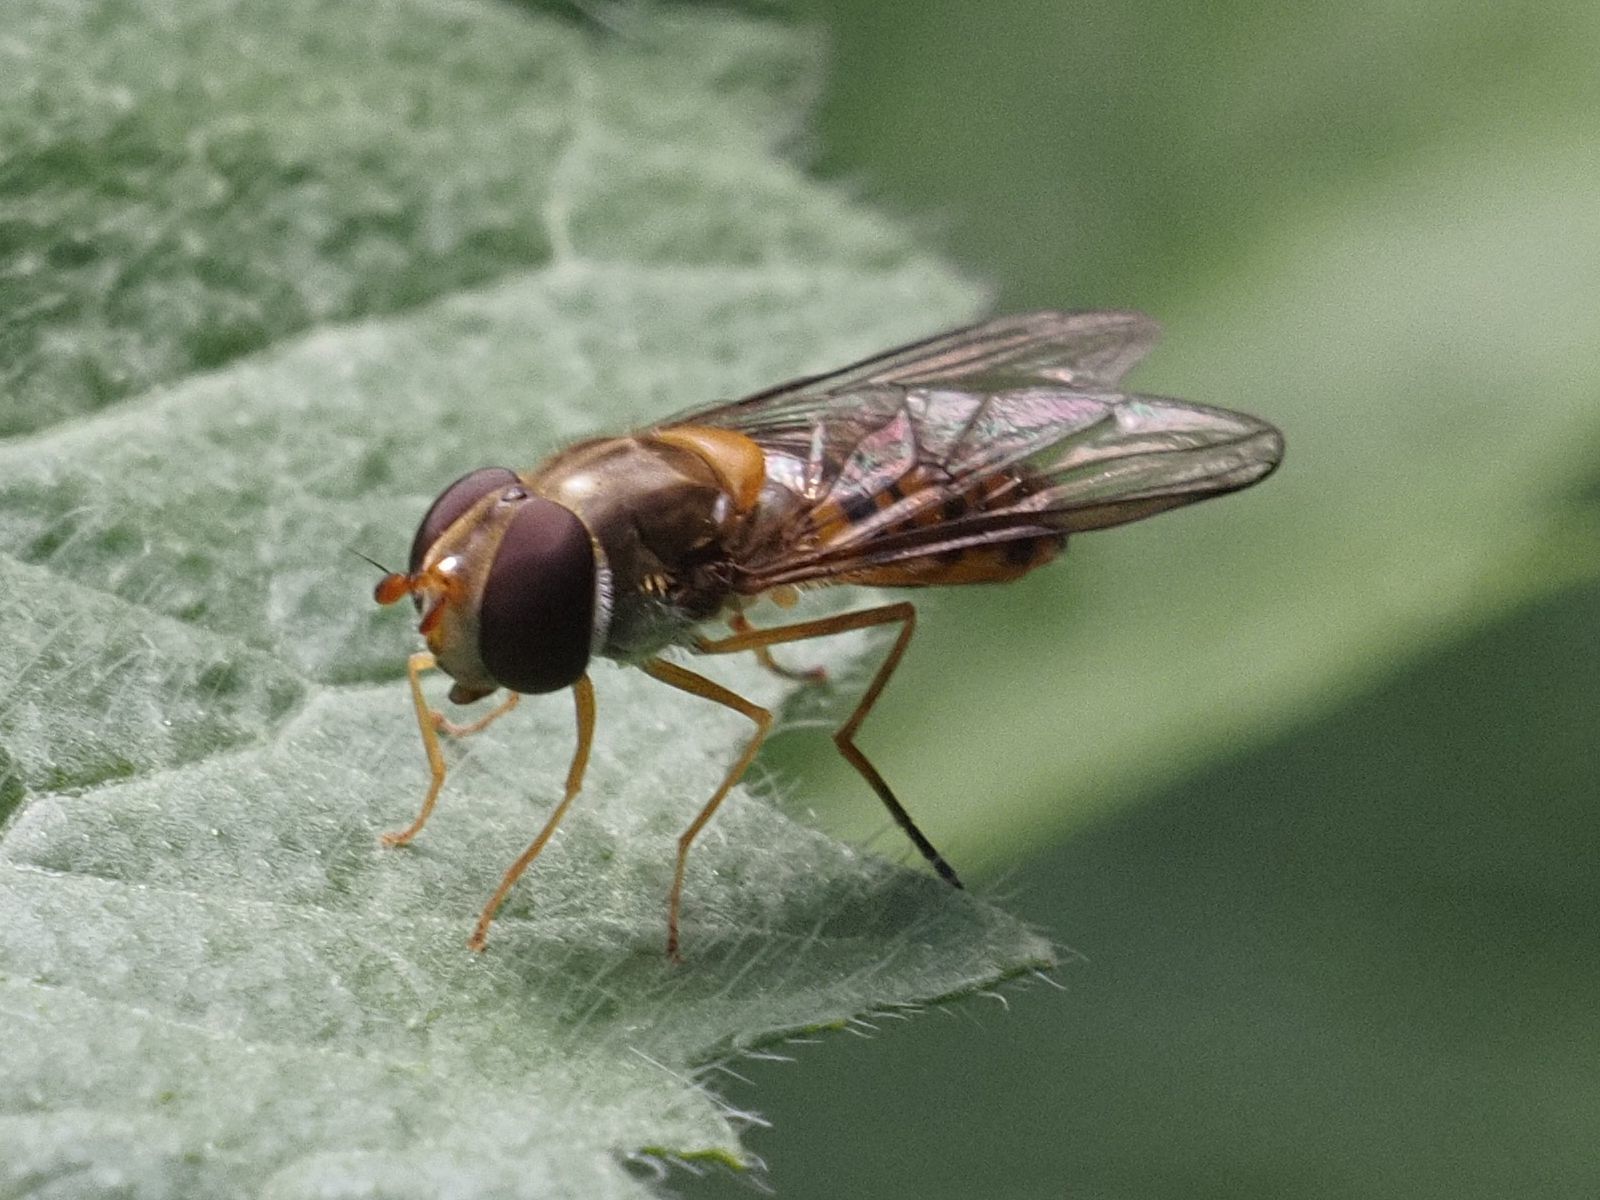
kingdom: Animalia
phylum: Arthropoda
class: Insecta
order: Diptera
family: Syrphidae
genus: Episyrphus
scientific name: Episyrphus balteatus
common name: Marmalade hoverfly
